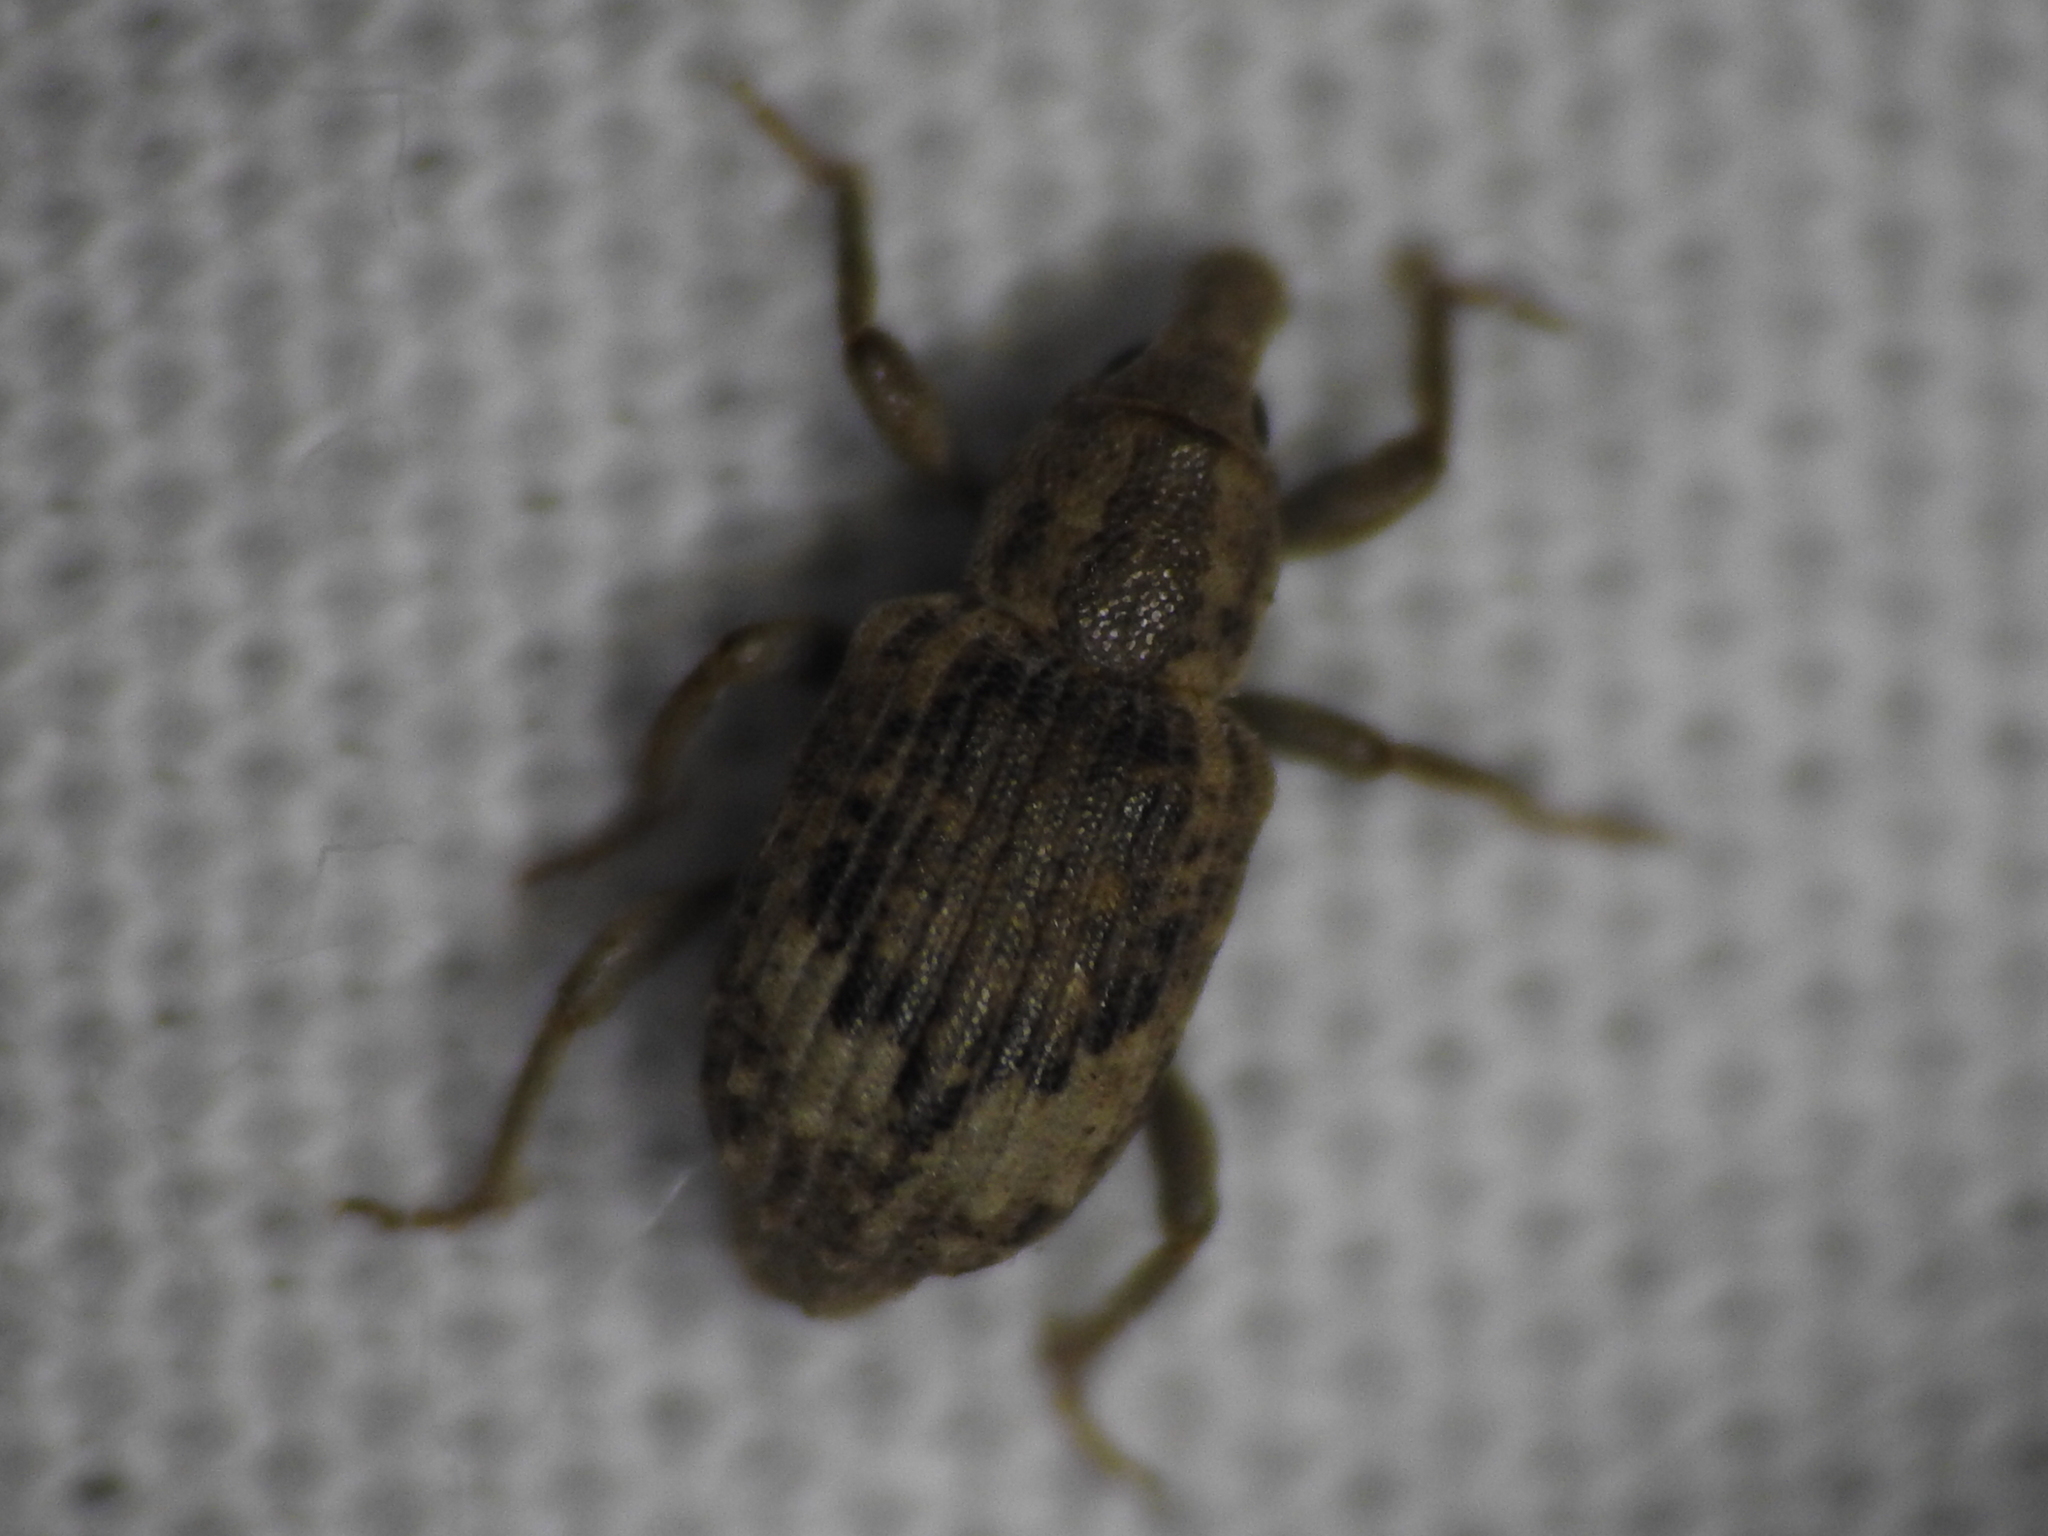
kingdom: Animalia
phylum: Arthropoda
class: Insecta
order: Coleoptera
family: Brachyceridae
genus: Lissorhoptrus
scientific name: Lissorhoptrus oryzophilus
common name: Rice water weevil
